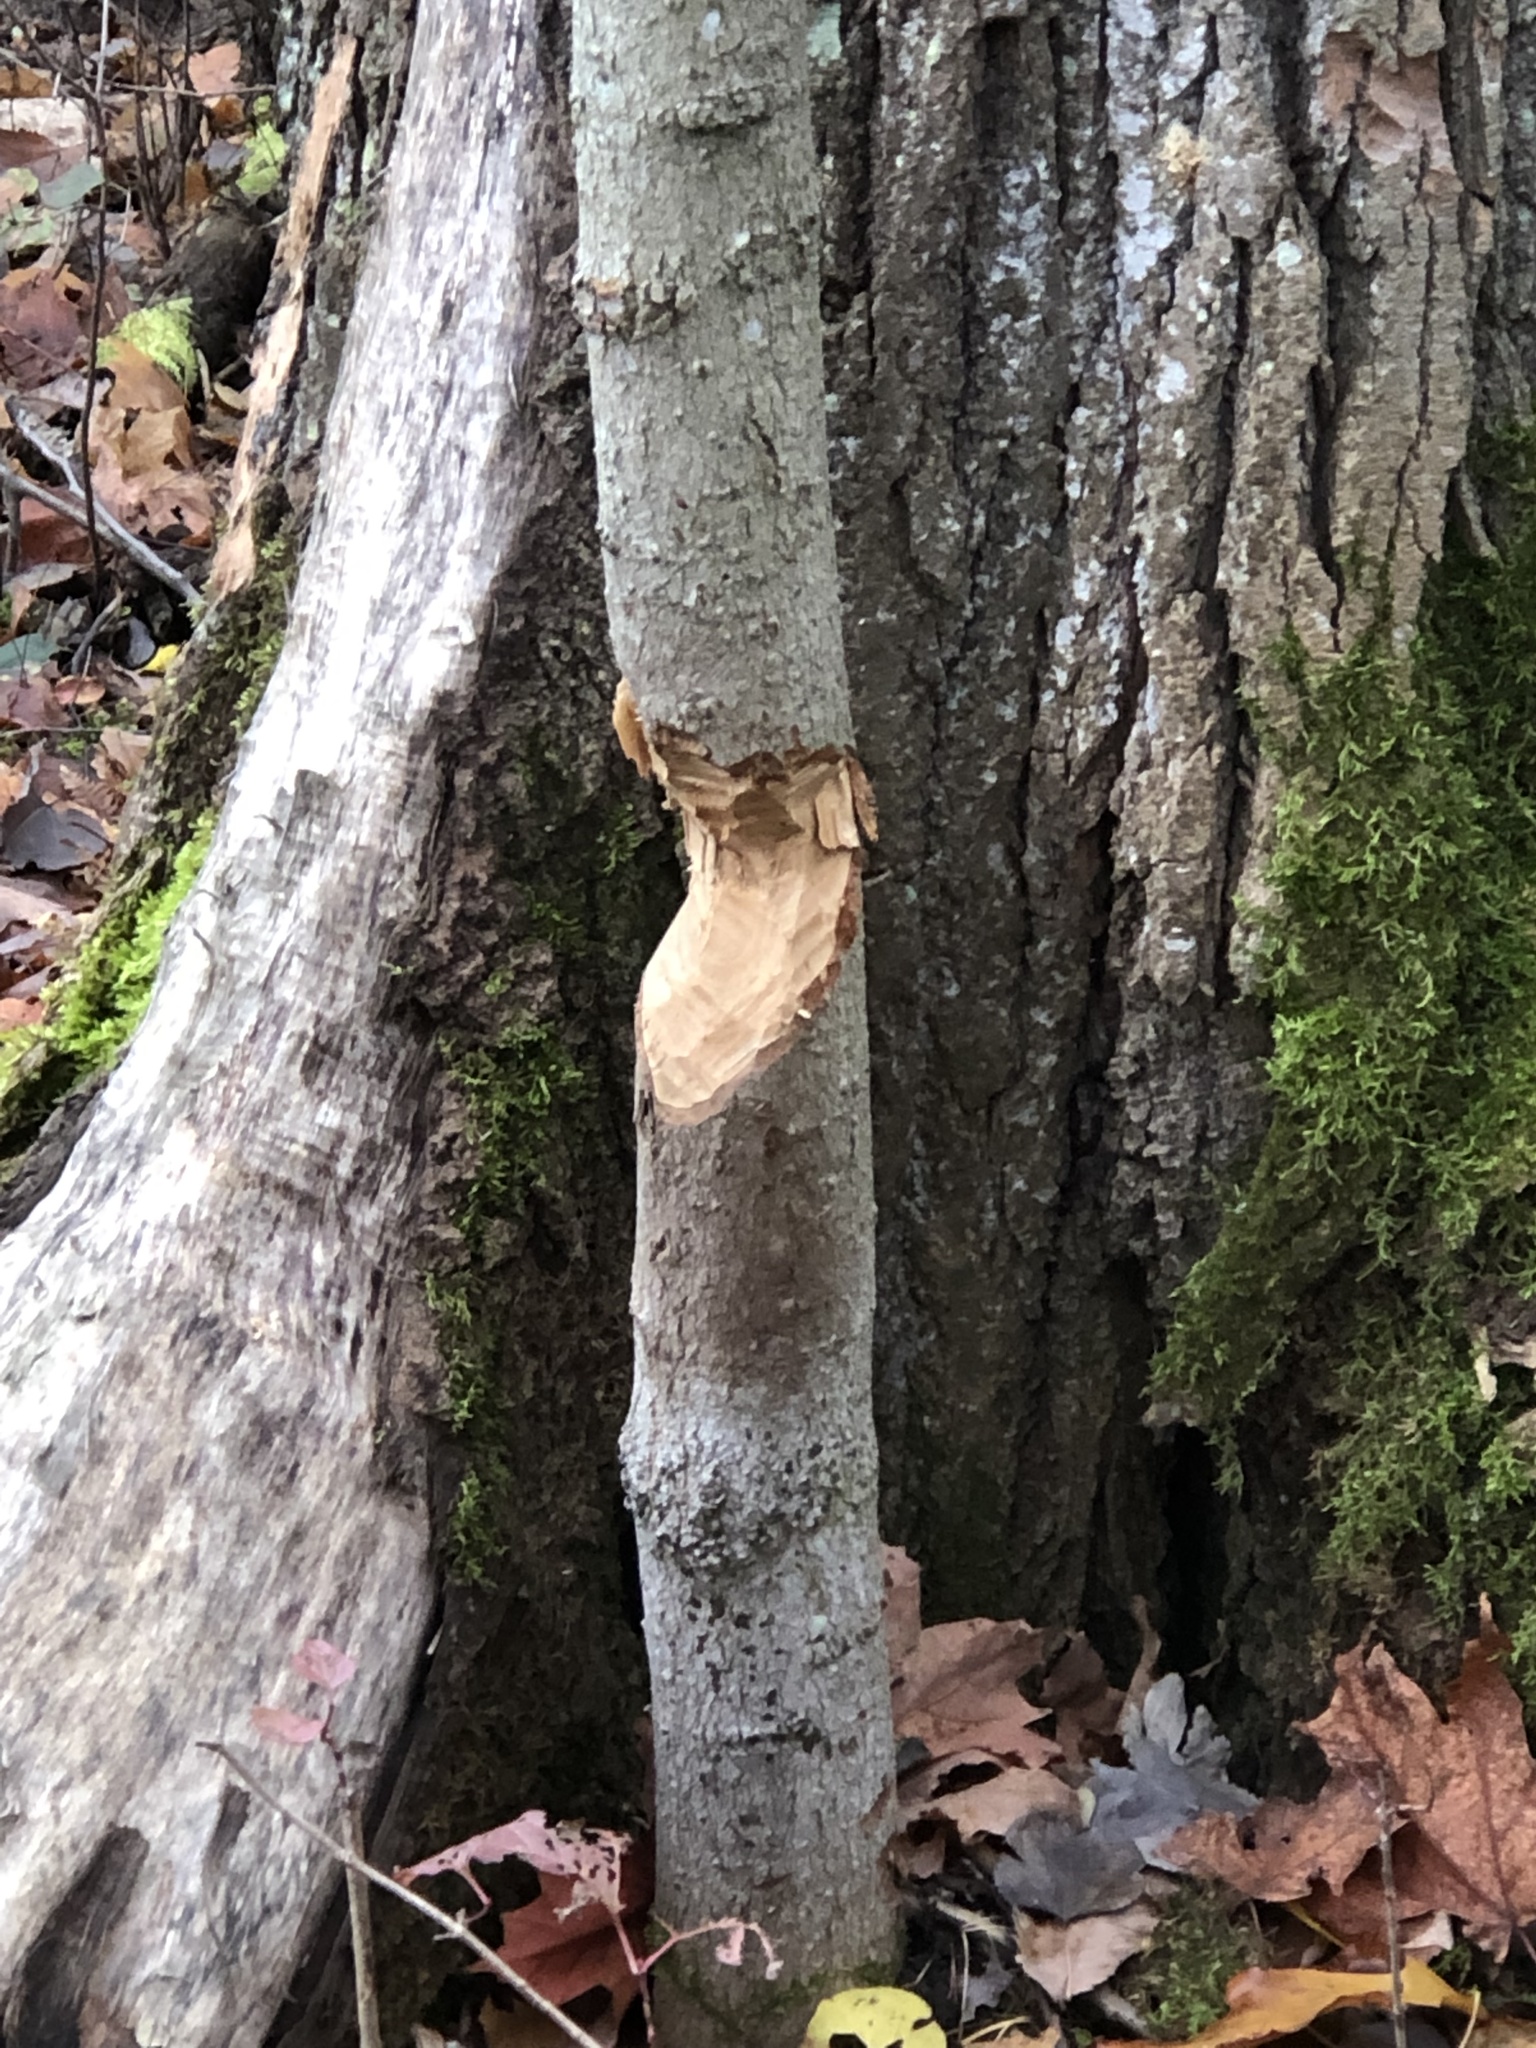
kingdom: Animalia
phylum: Chordata
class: Mammalia
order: Rodentia
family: Castoridae
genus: Castor
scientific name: Castor canadensis
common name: American beaver
